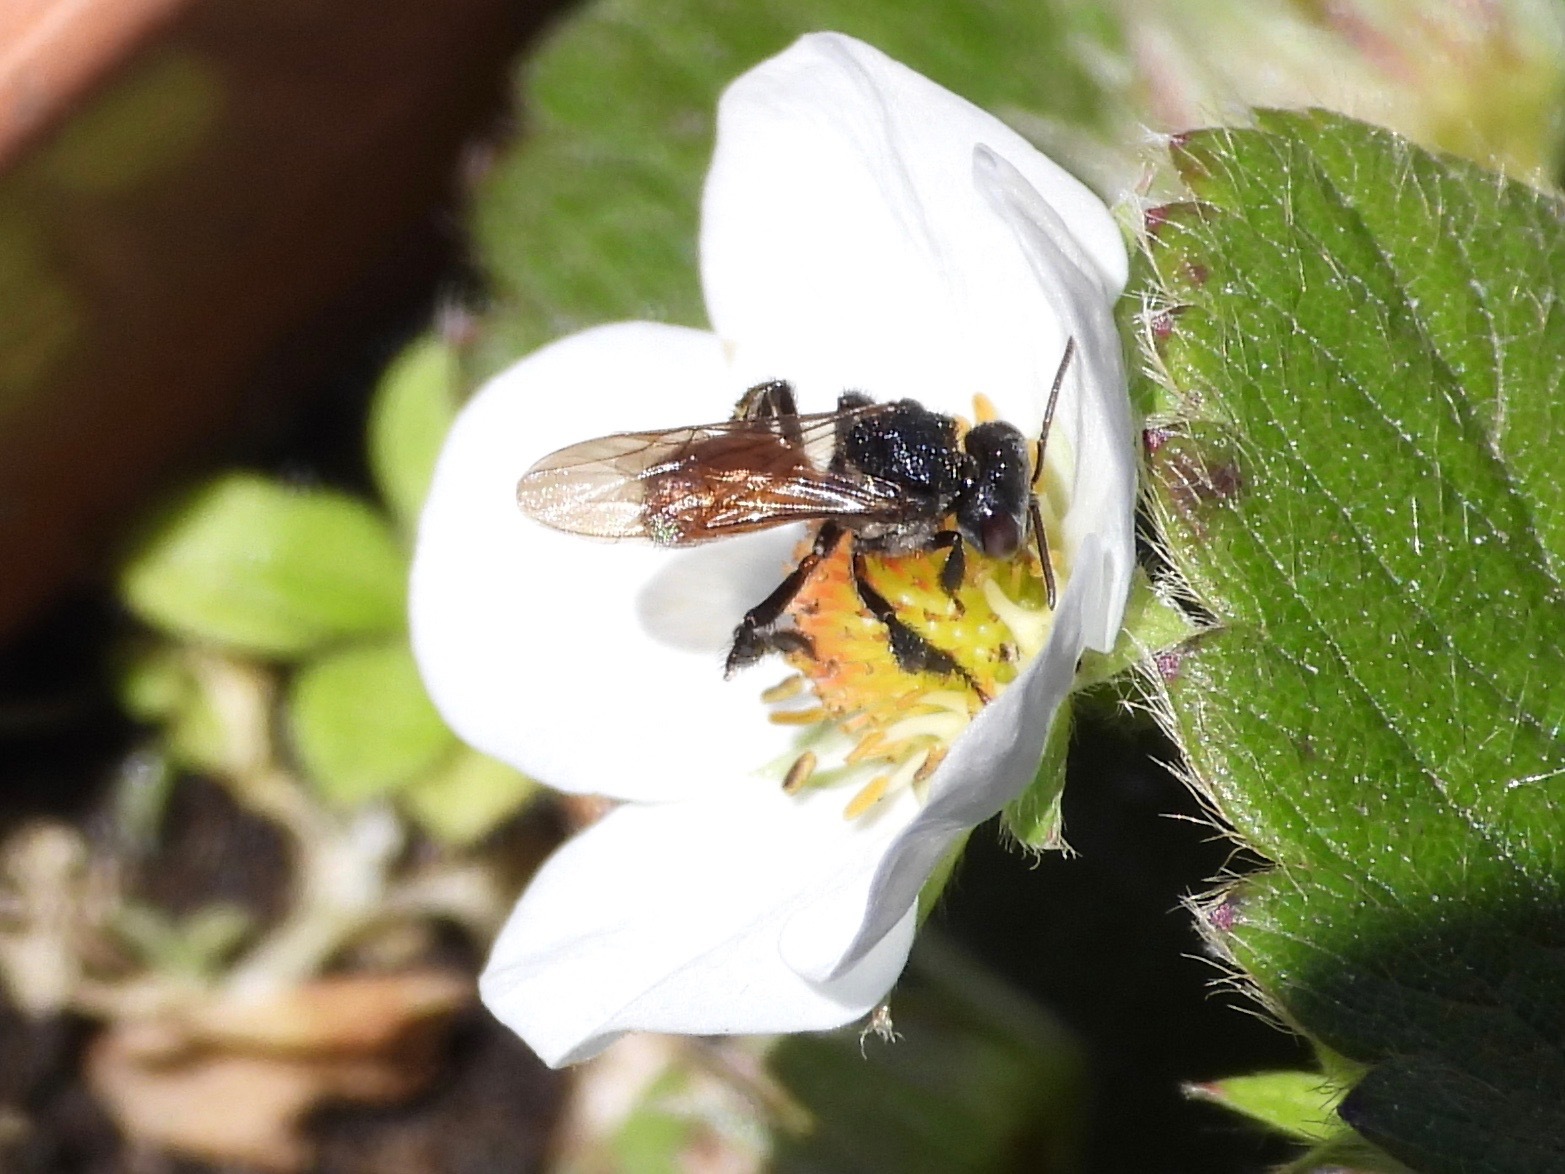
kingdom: Animalia
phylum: Arthropoda
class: Insecta
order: Hymenoptera
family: Apidae
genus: Trigona
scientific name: Trigona fulviventris
